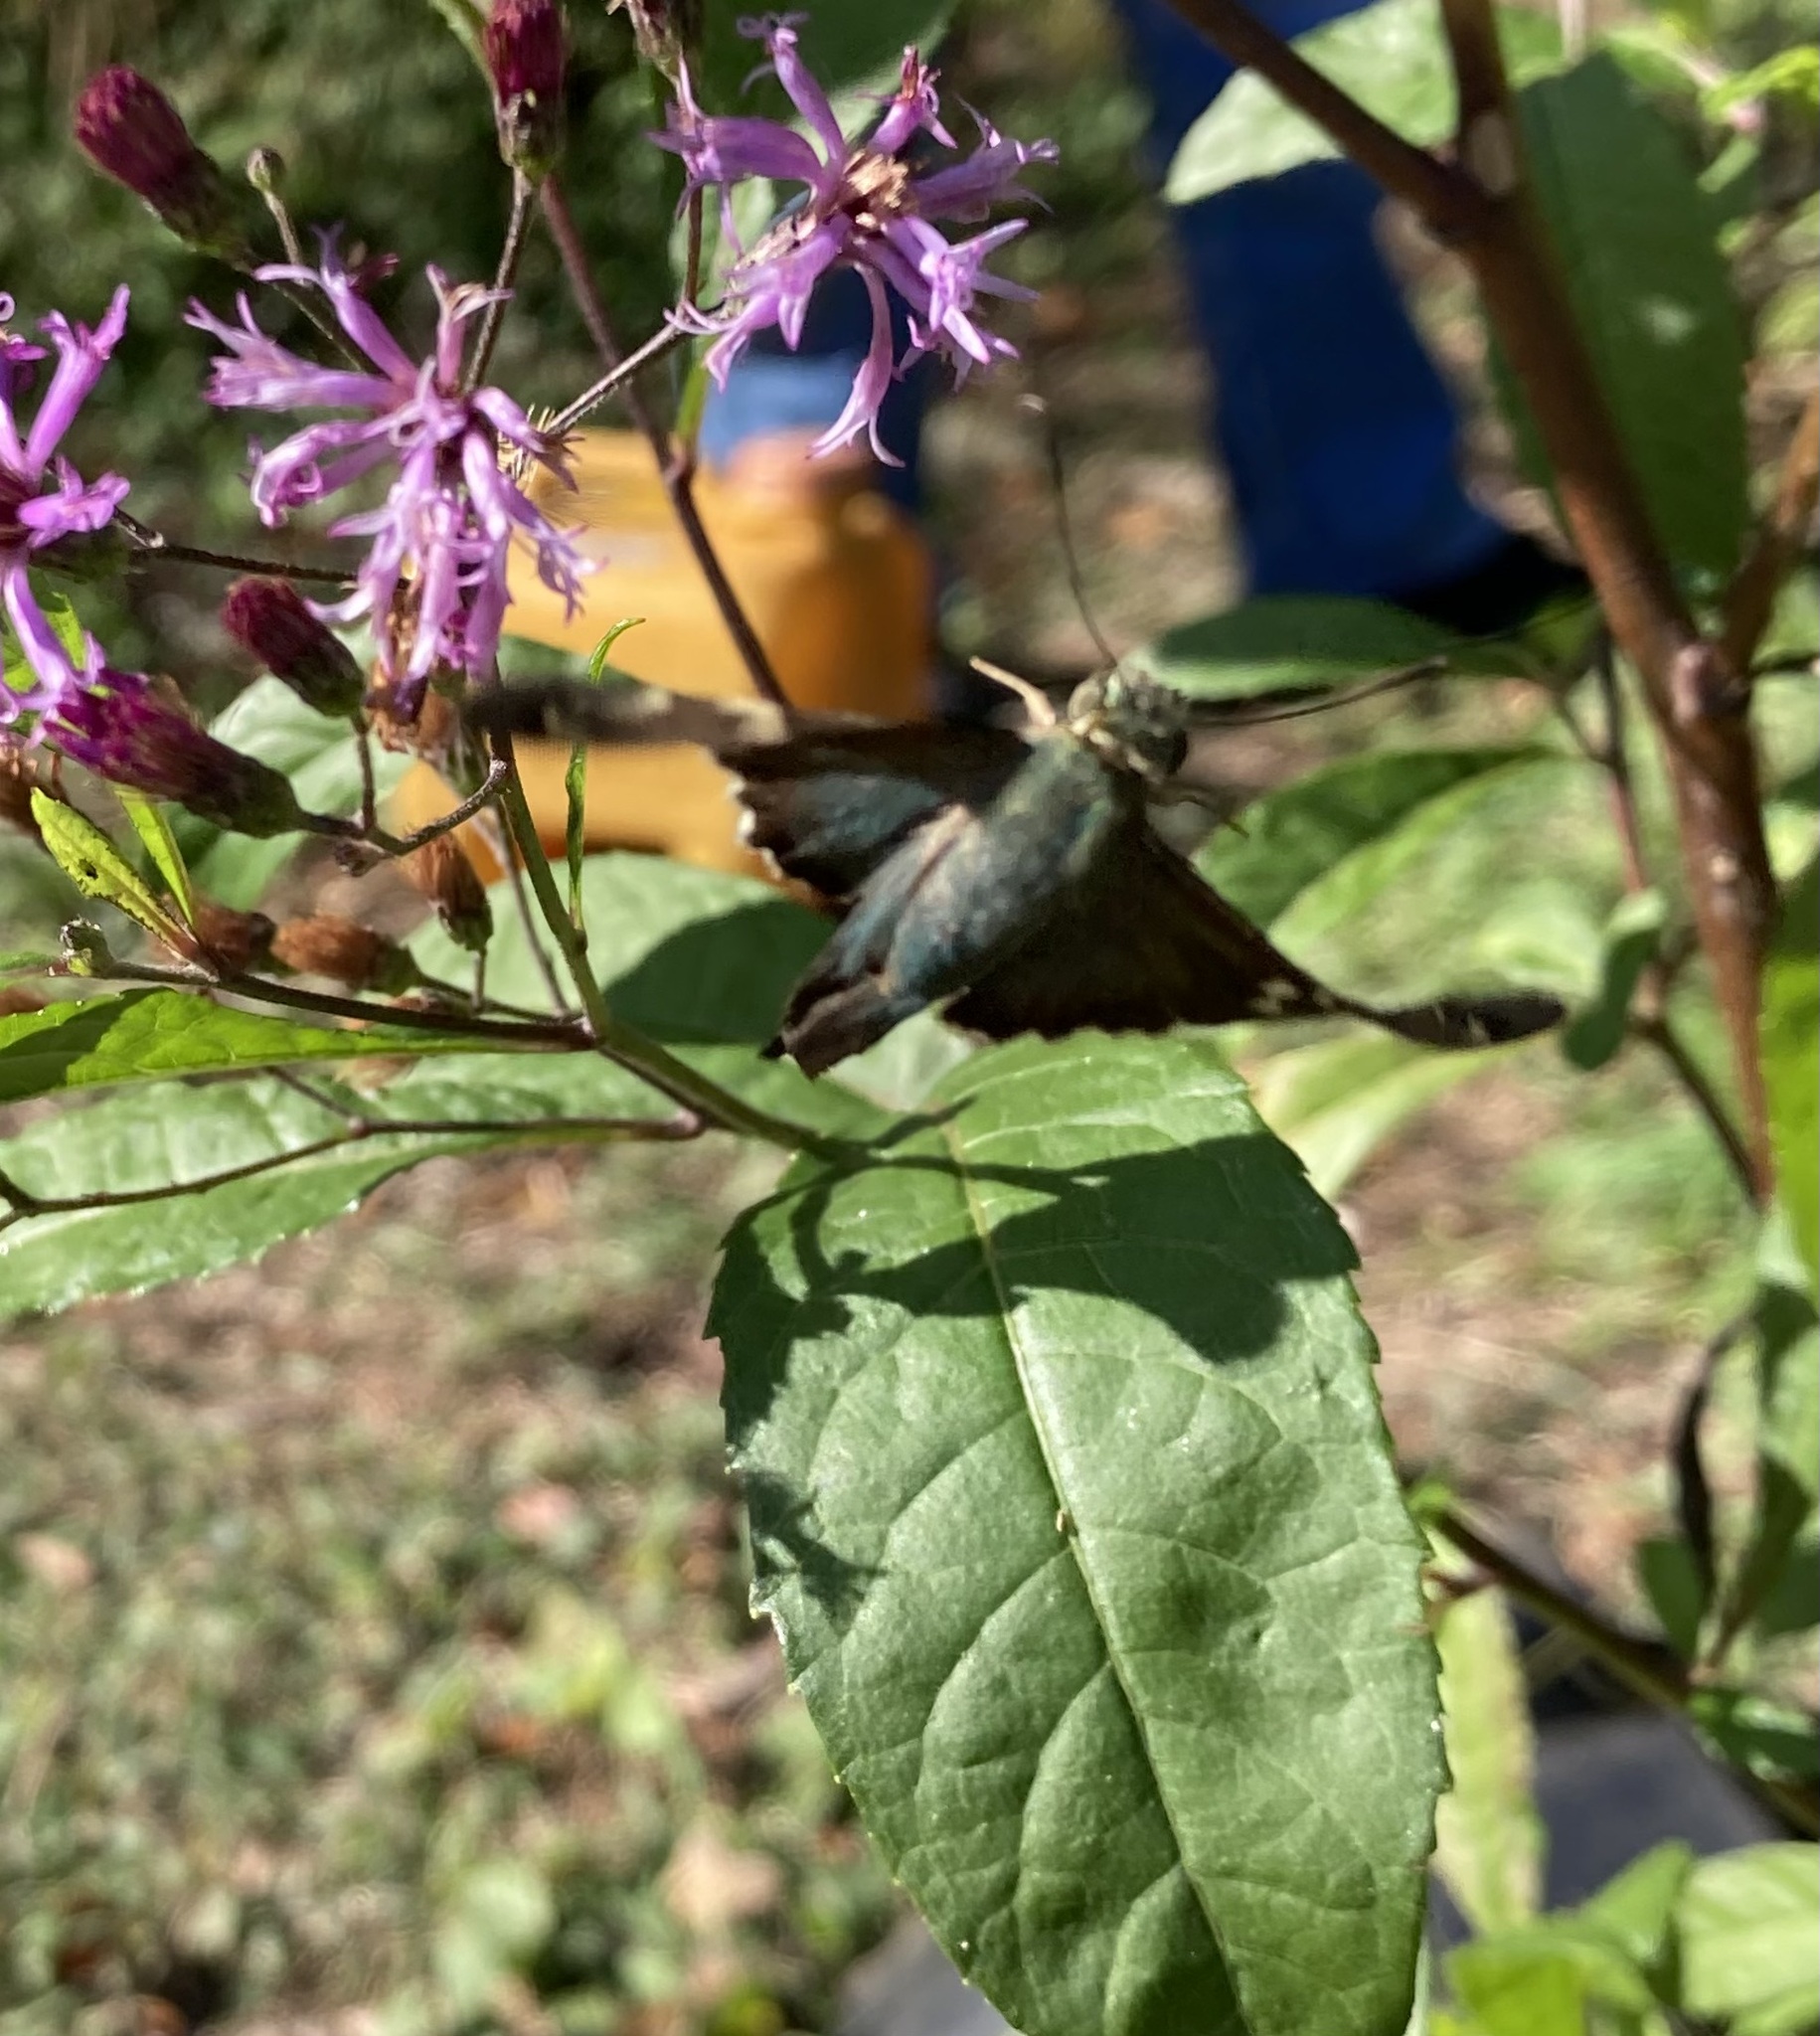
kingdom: Animalia
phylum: Arthropoda
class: Insecta
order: Lepidoptera
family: Hesperiidae
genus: Urbanus
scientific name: Urbanus proteus
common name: Long-tailed skipper
